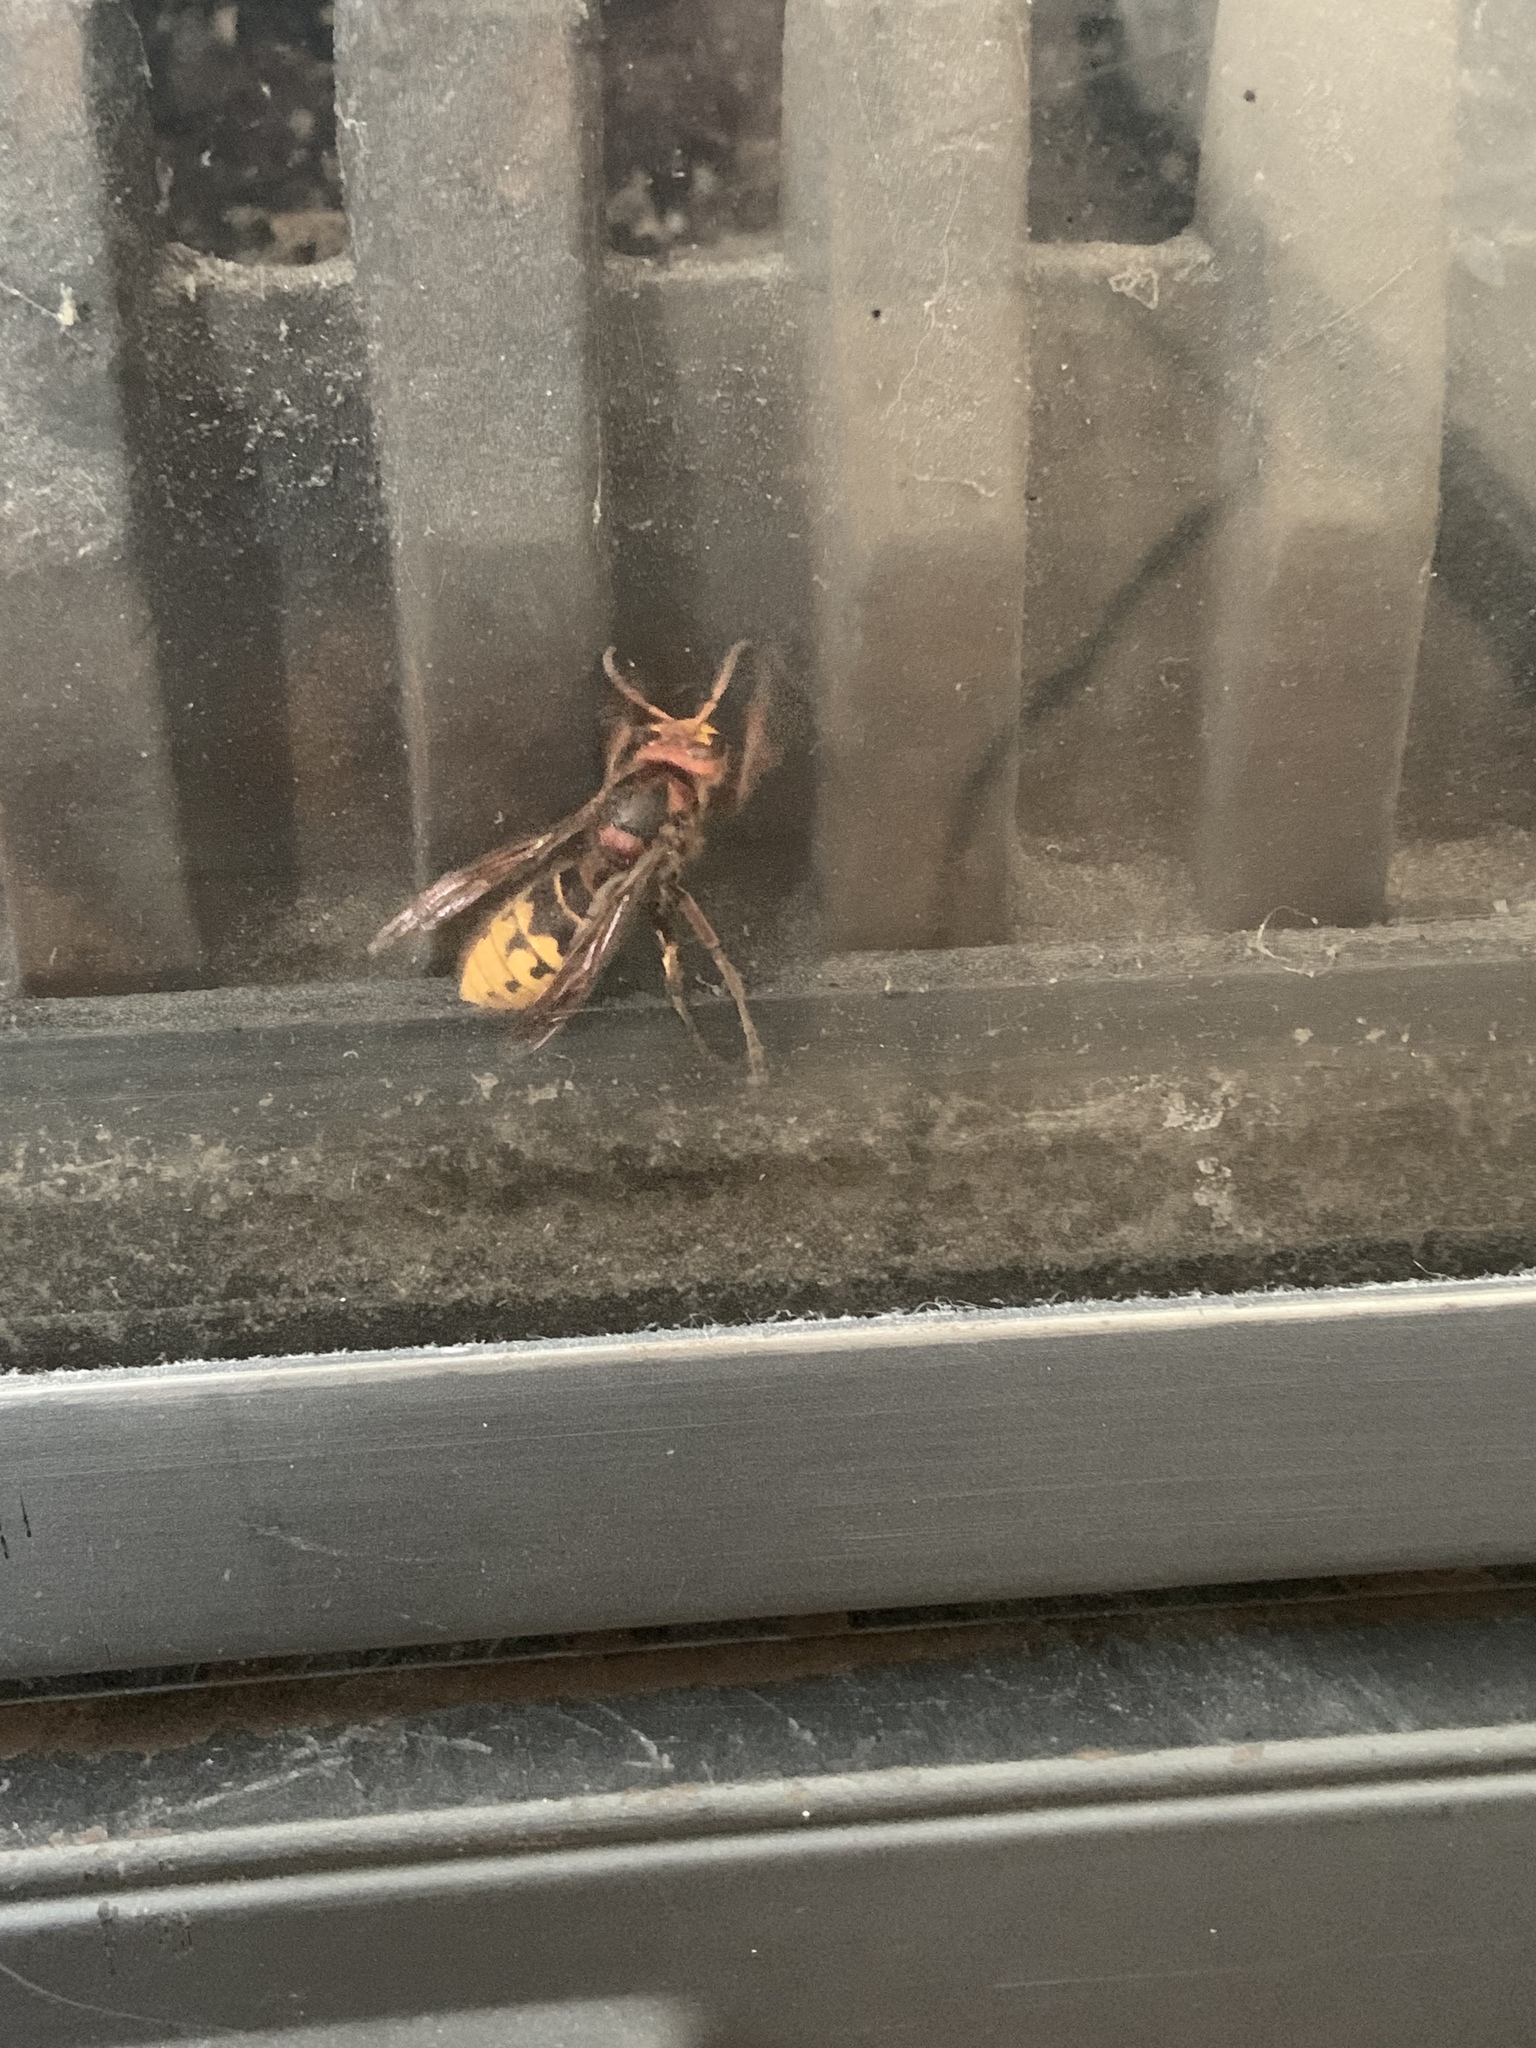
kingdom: Animalia
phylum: Arthropoda
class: Insecta
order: Hymenoptera
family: Vespidae
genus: Vespa
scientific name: Vespa crabro
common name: Hornet
